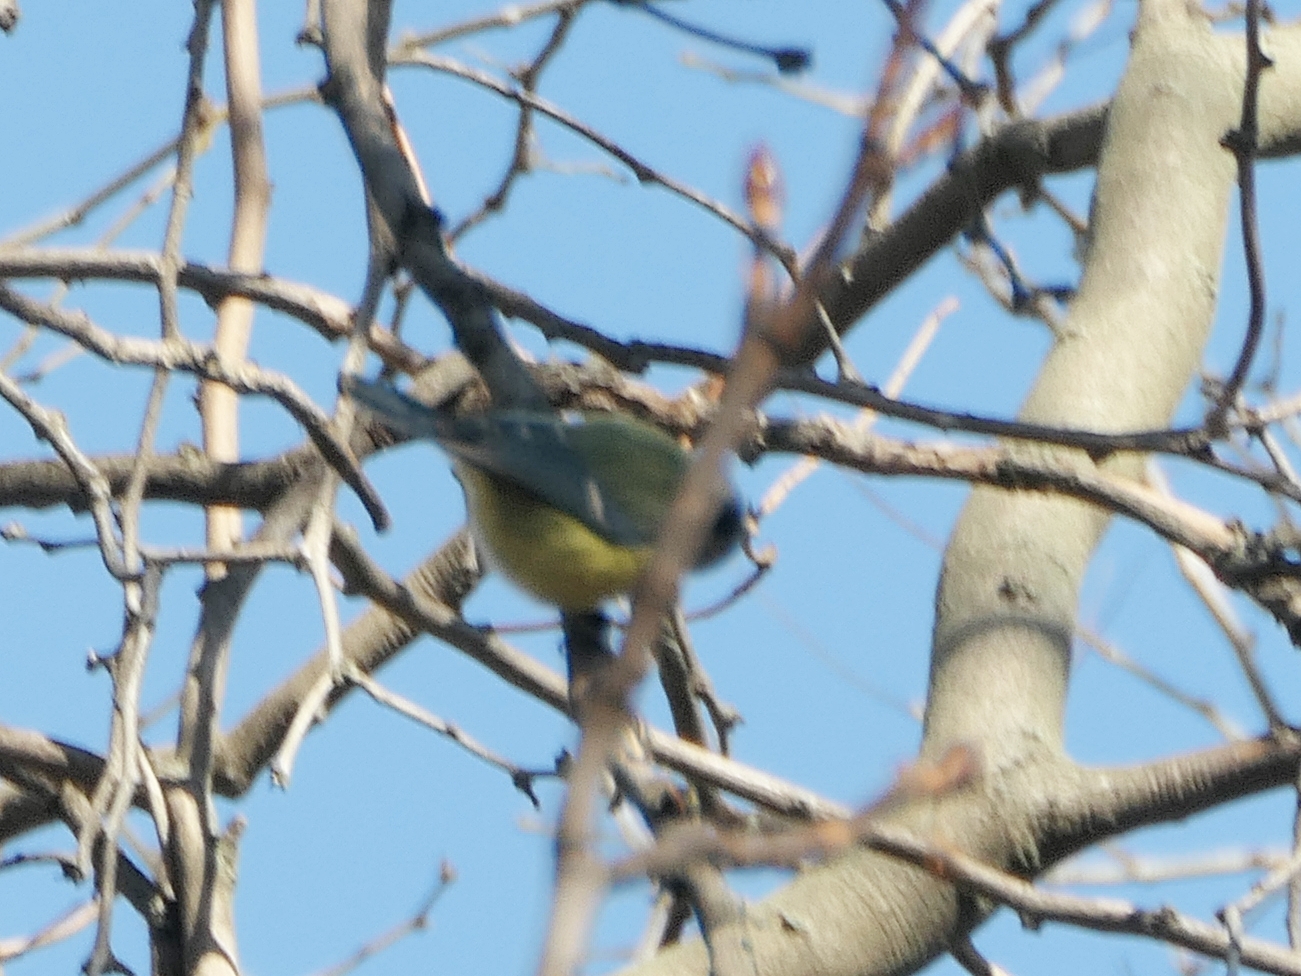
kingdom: Animalia
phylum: Chordata
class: Aves
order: Passeriformes
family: Paridae
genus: Cyanistes
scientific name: Cyanistes caeruleus
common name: Eurasian blue tit
